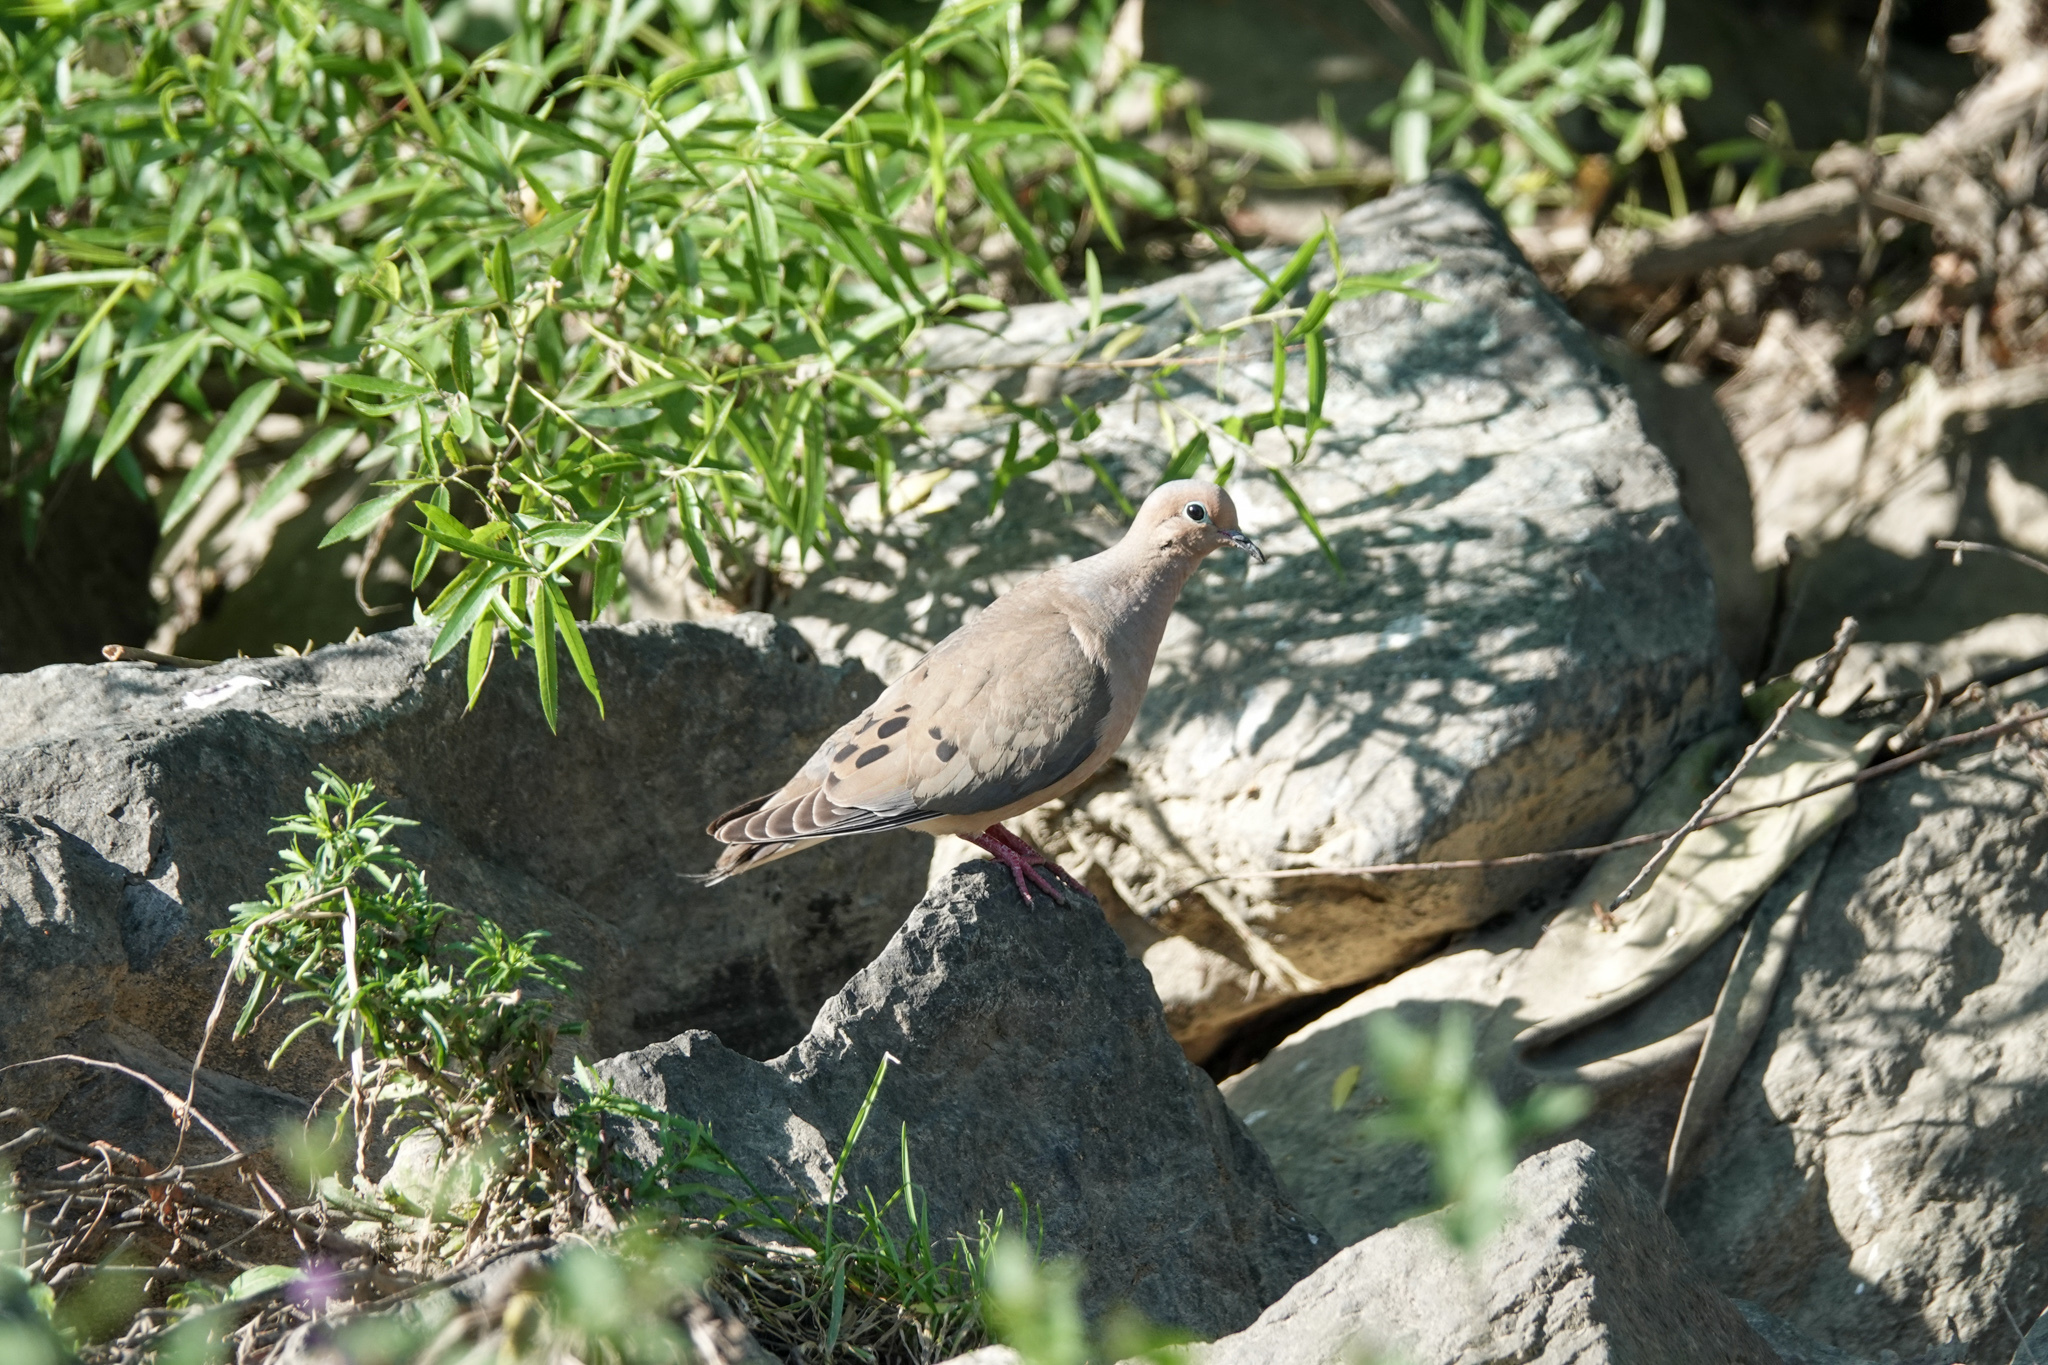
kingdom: Animalia
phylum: Chordata
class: Aves
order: Columbiformes
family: Columbidae
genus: Zenaida
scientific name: Zenaida macroura
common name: Mourning dove
